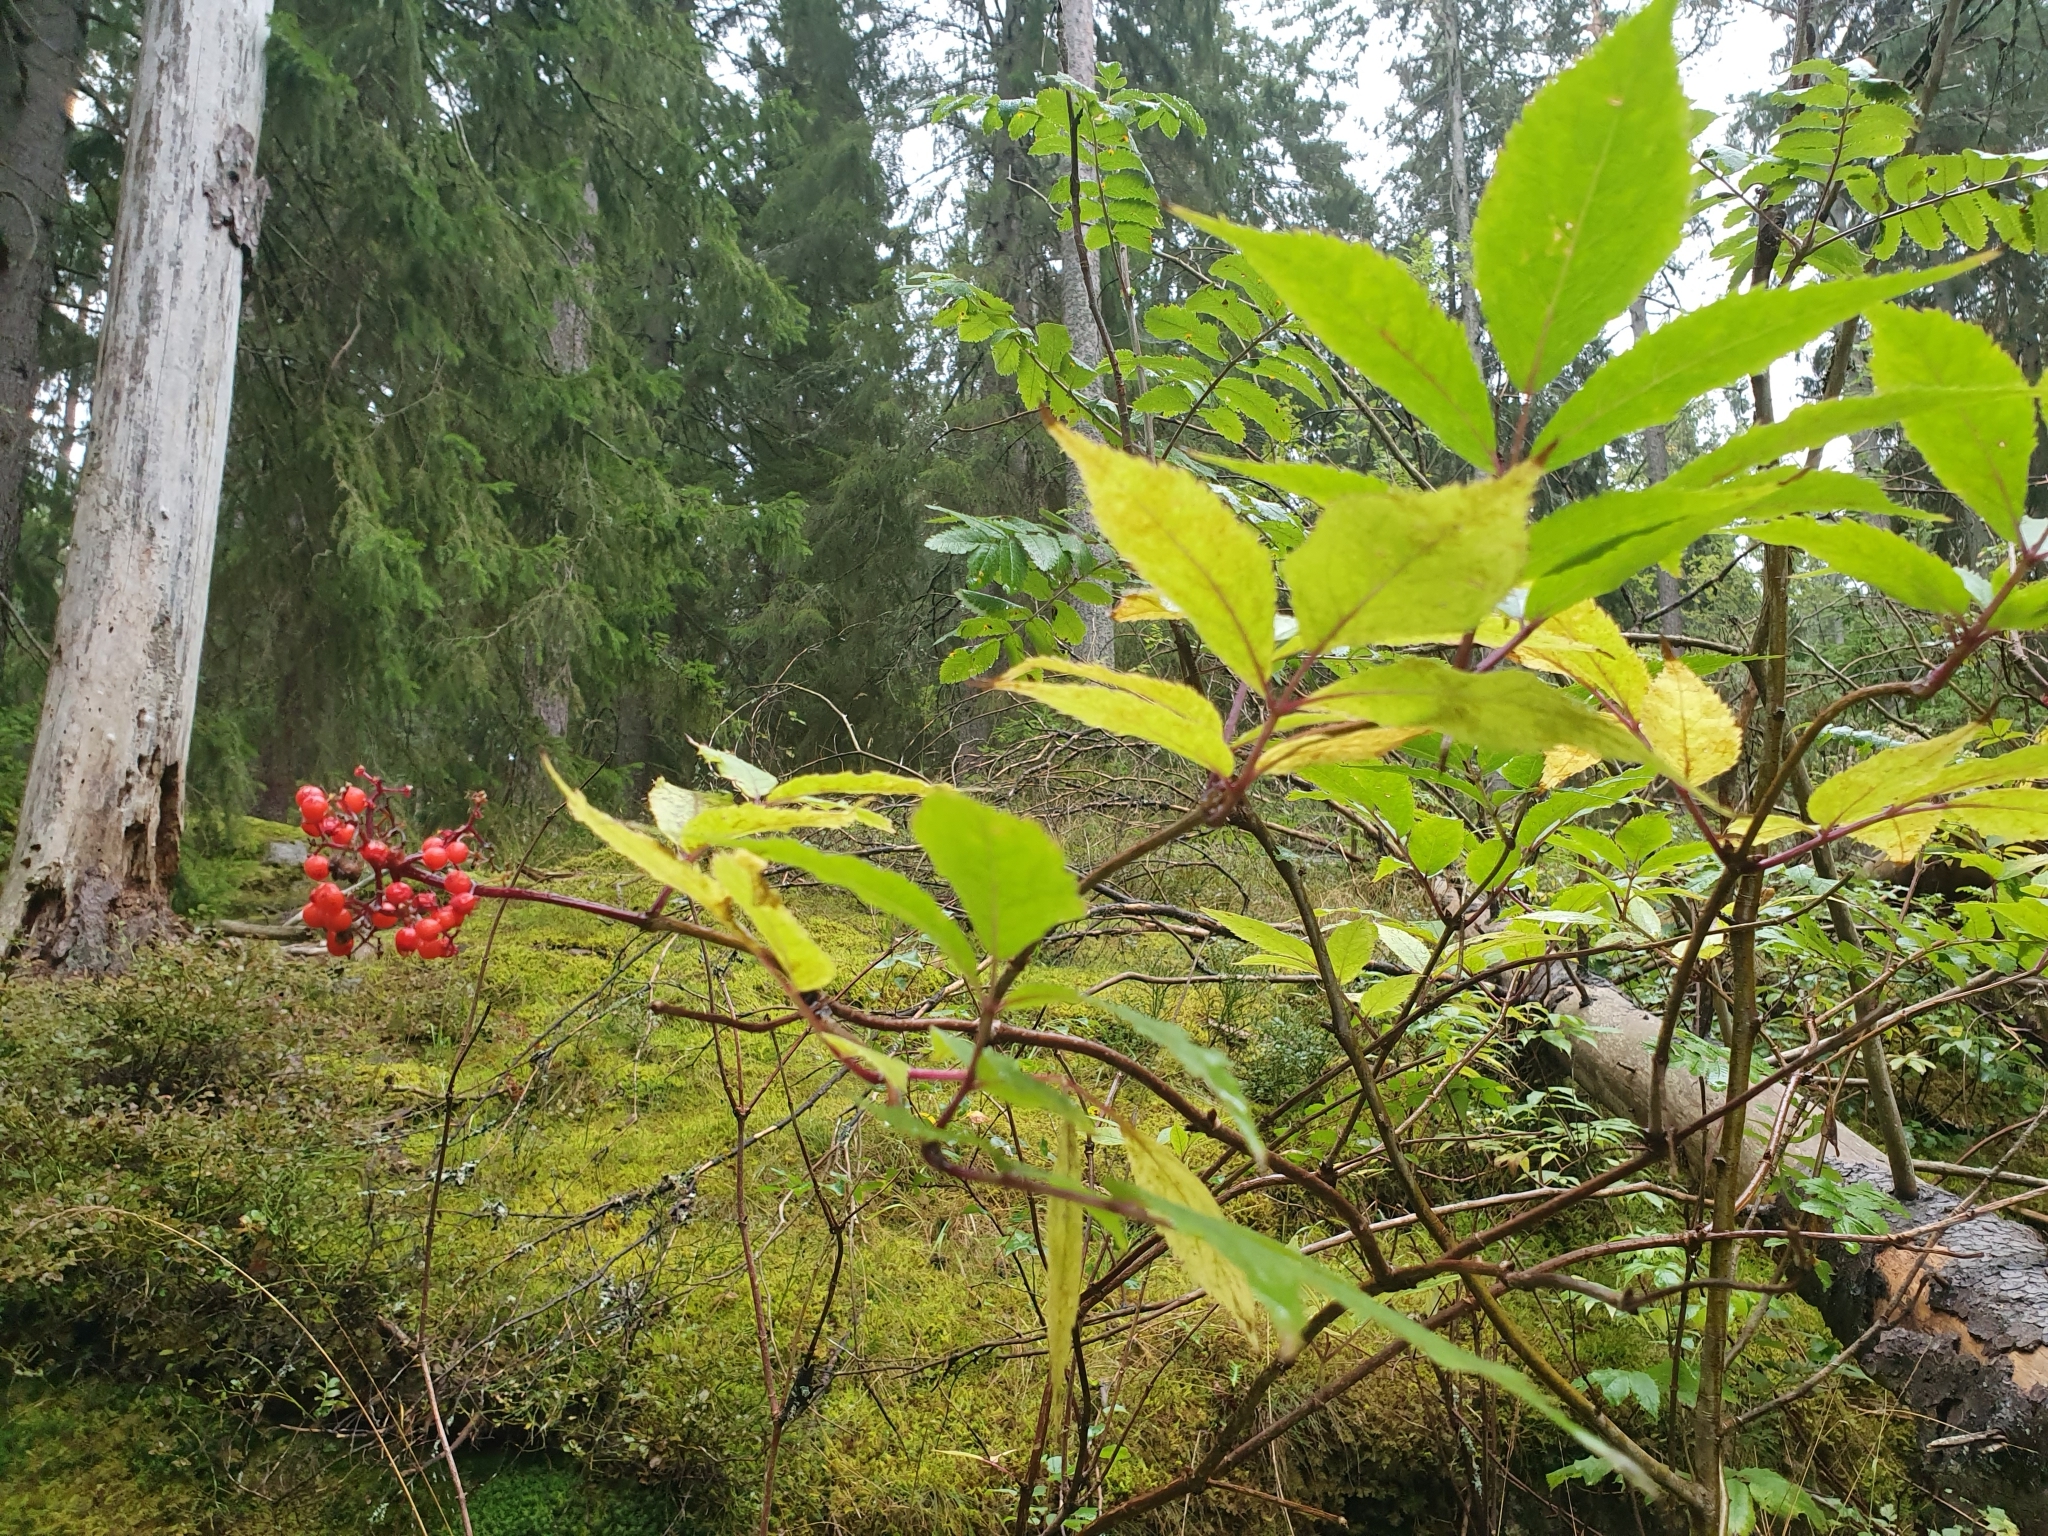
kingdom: Plantae
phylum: Tracheophyta
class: Magnoliopsida
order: Dipsacales
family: Viburnaceae
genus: Sambucus
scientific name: Sambucus racemosa
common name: Red-berried elder
